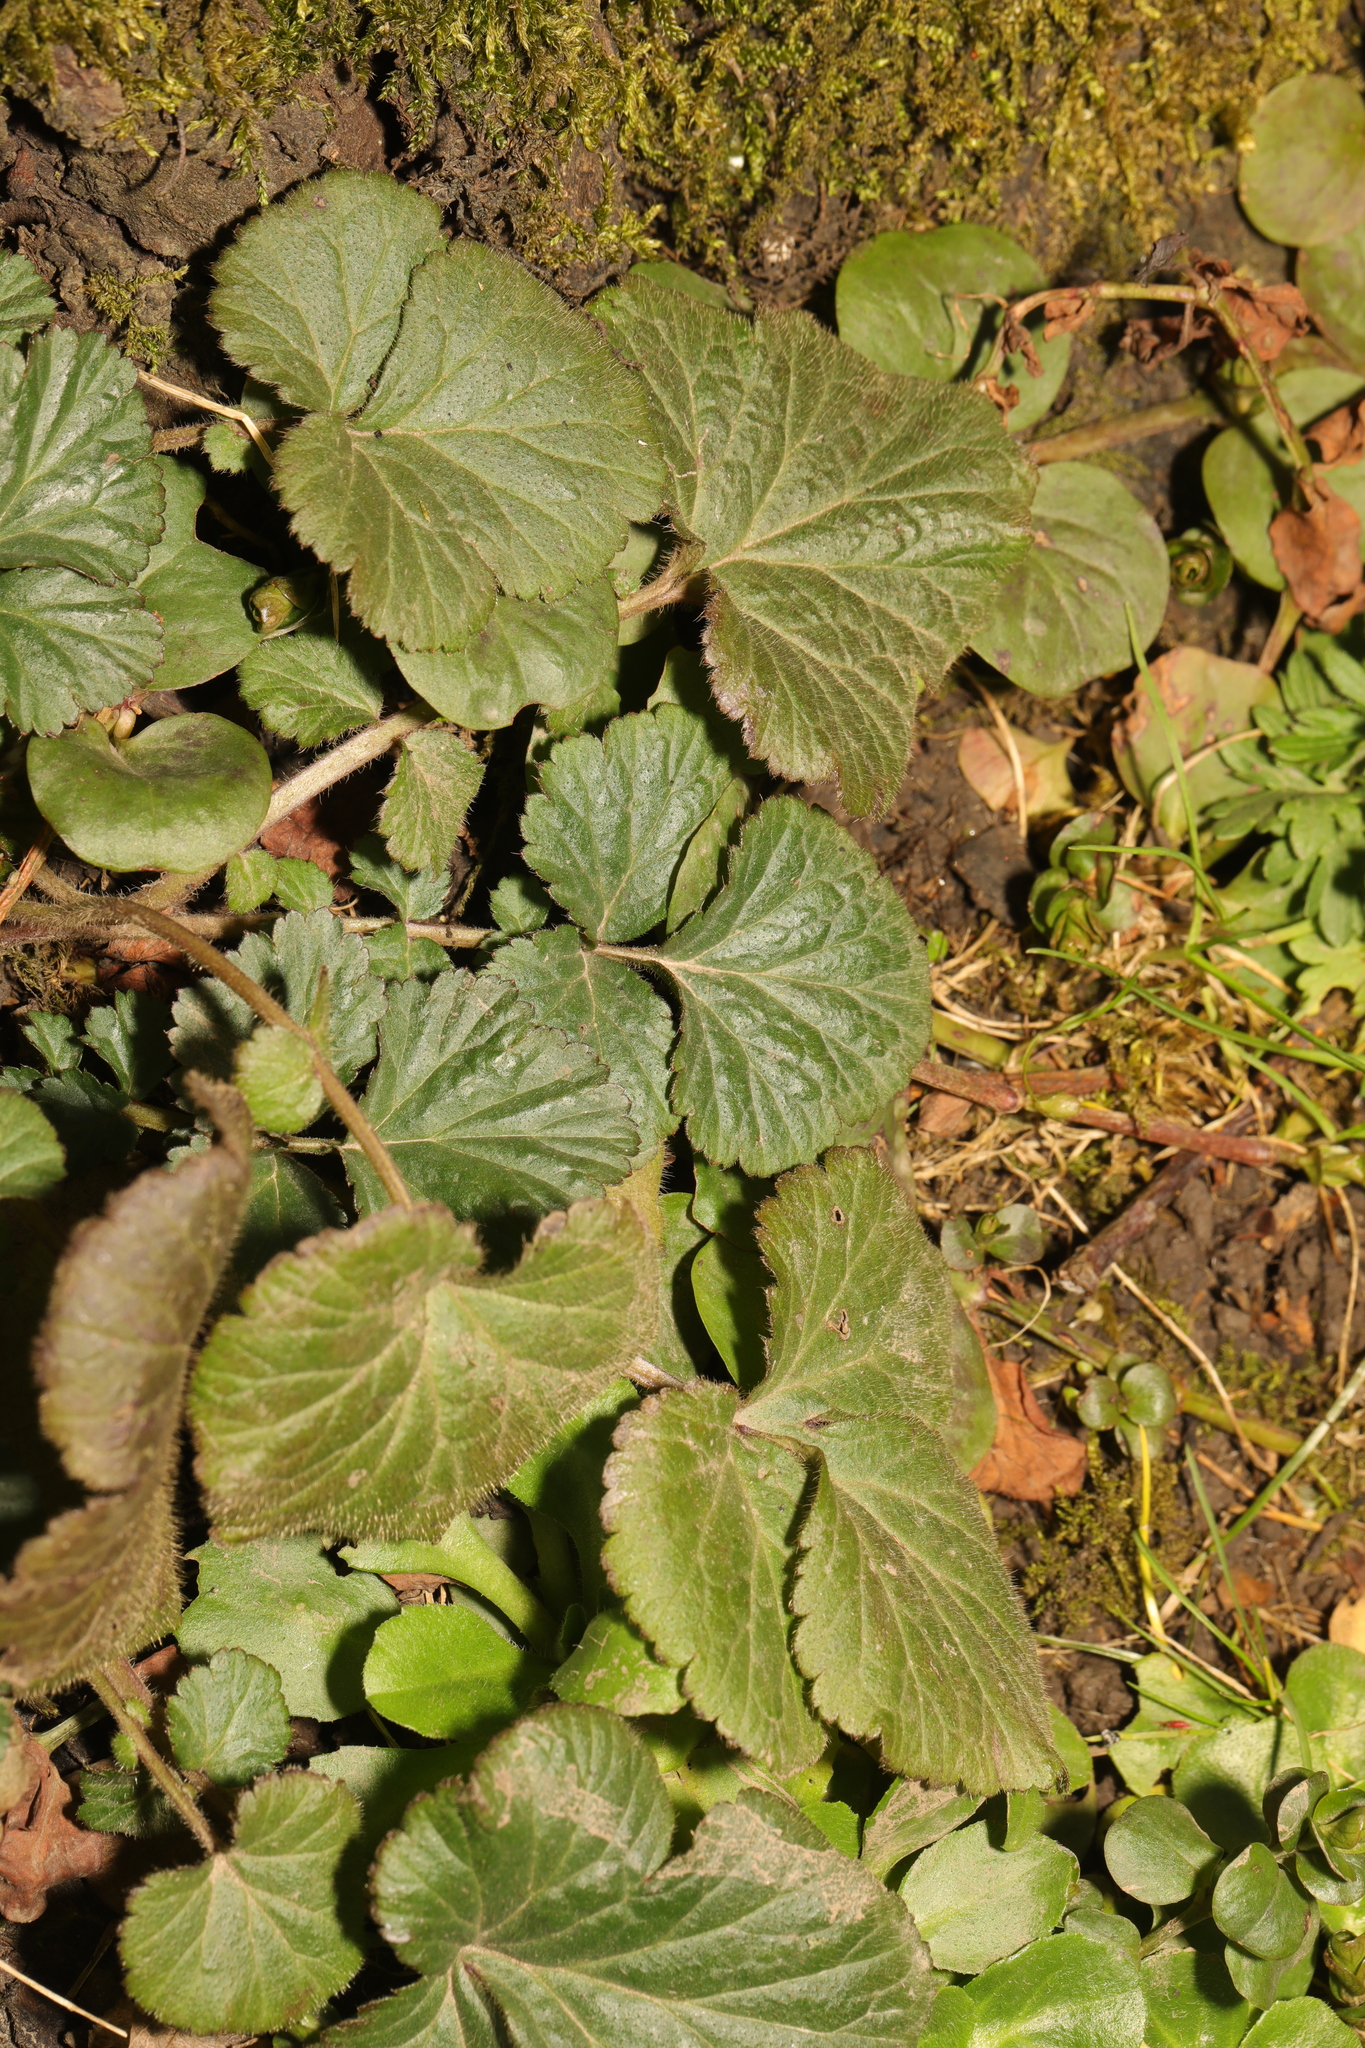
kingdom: Plantae
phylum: Tracheophyta
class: Magnoliopsida
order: Rosales
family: Rosaceae
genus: Geum
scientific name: Geum urbanum
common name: Wood avens
